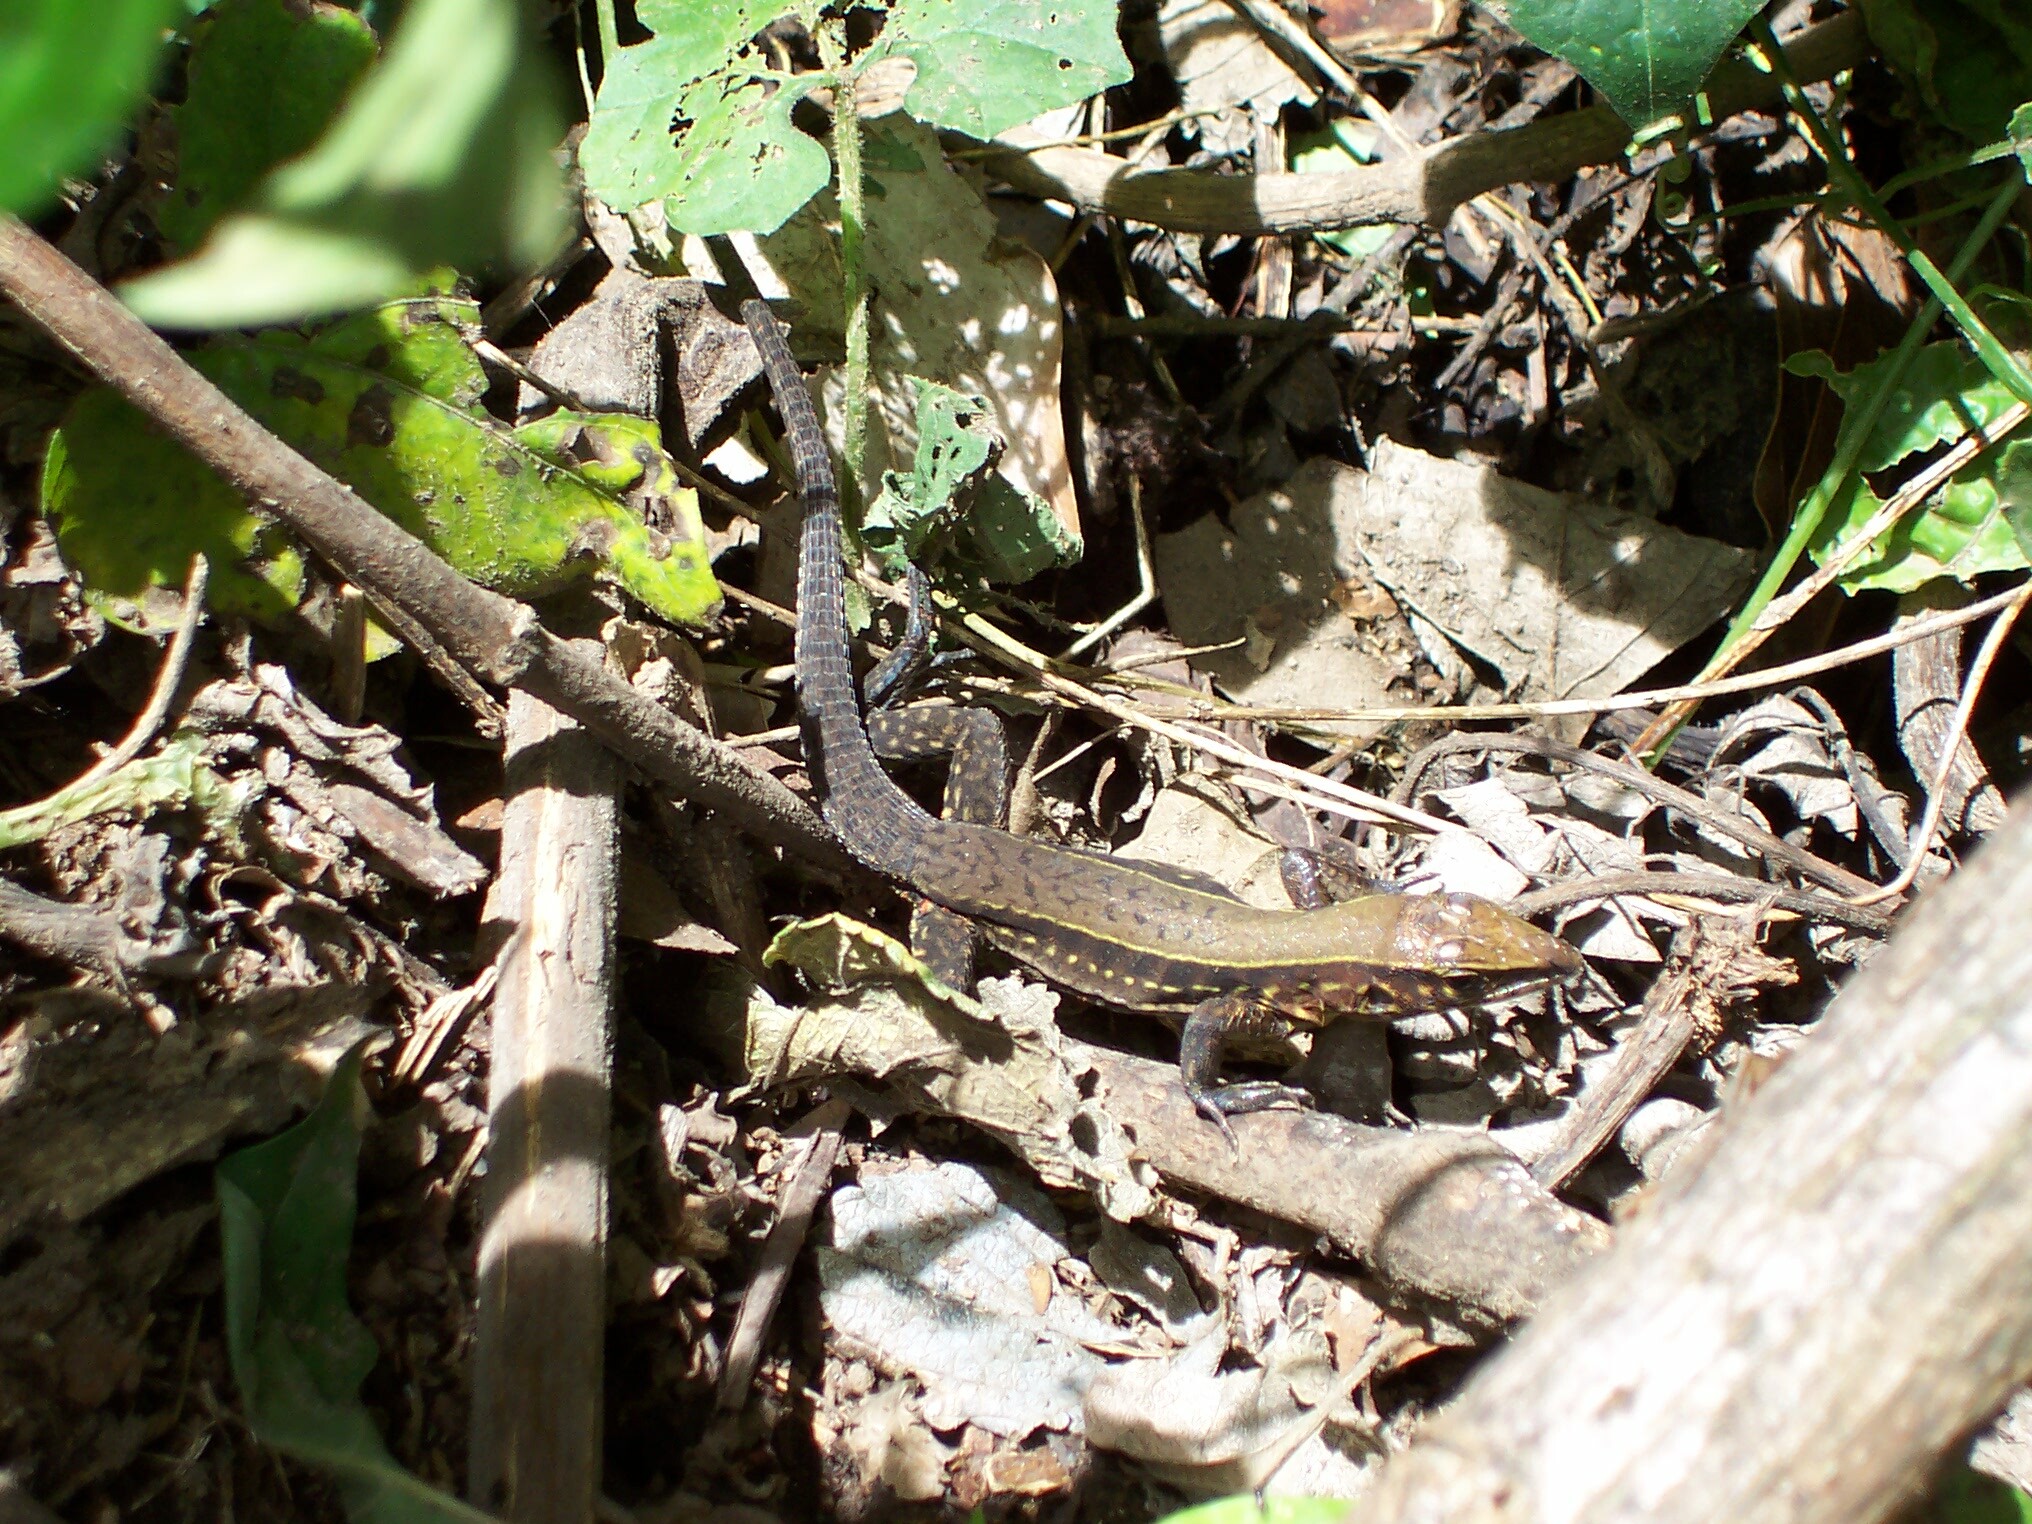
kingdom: Animalia
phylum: Chordata
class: Squamata
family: Teiidae
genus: Holcosus
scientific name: Holcosus undulatus
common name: Rainbow ameiva
